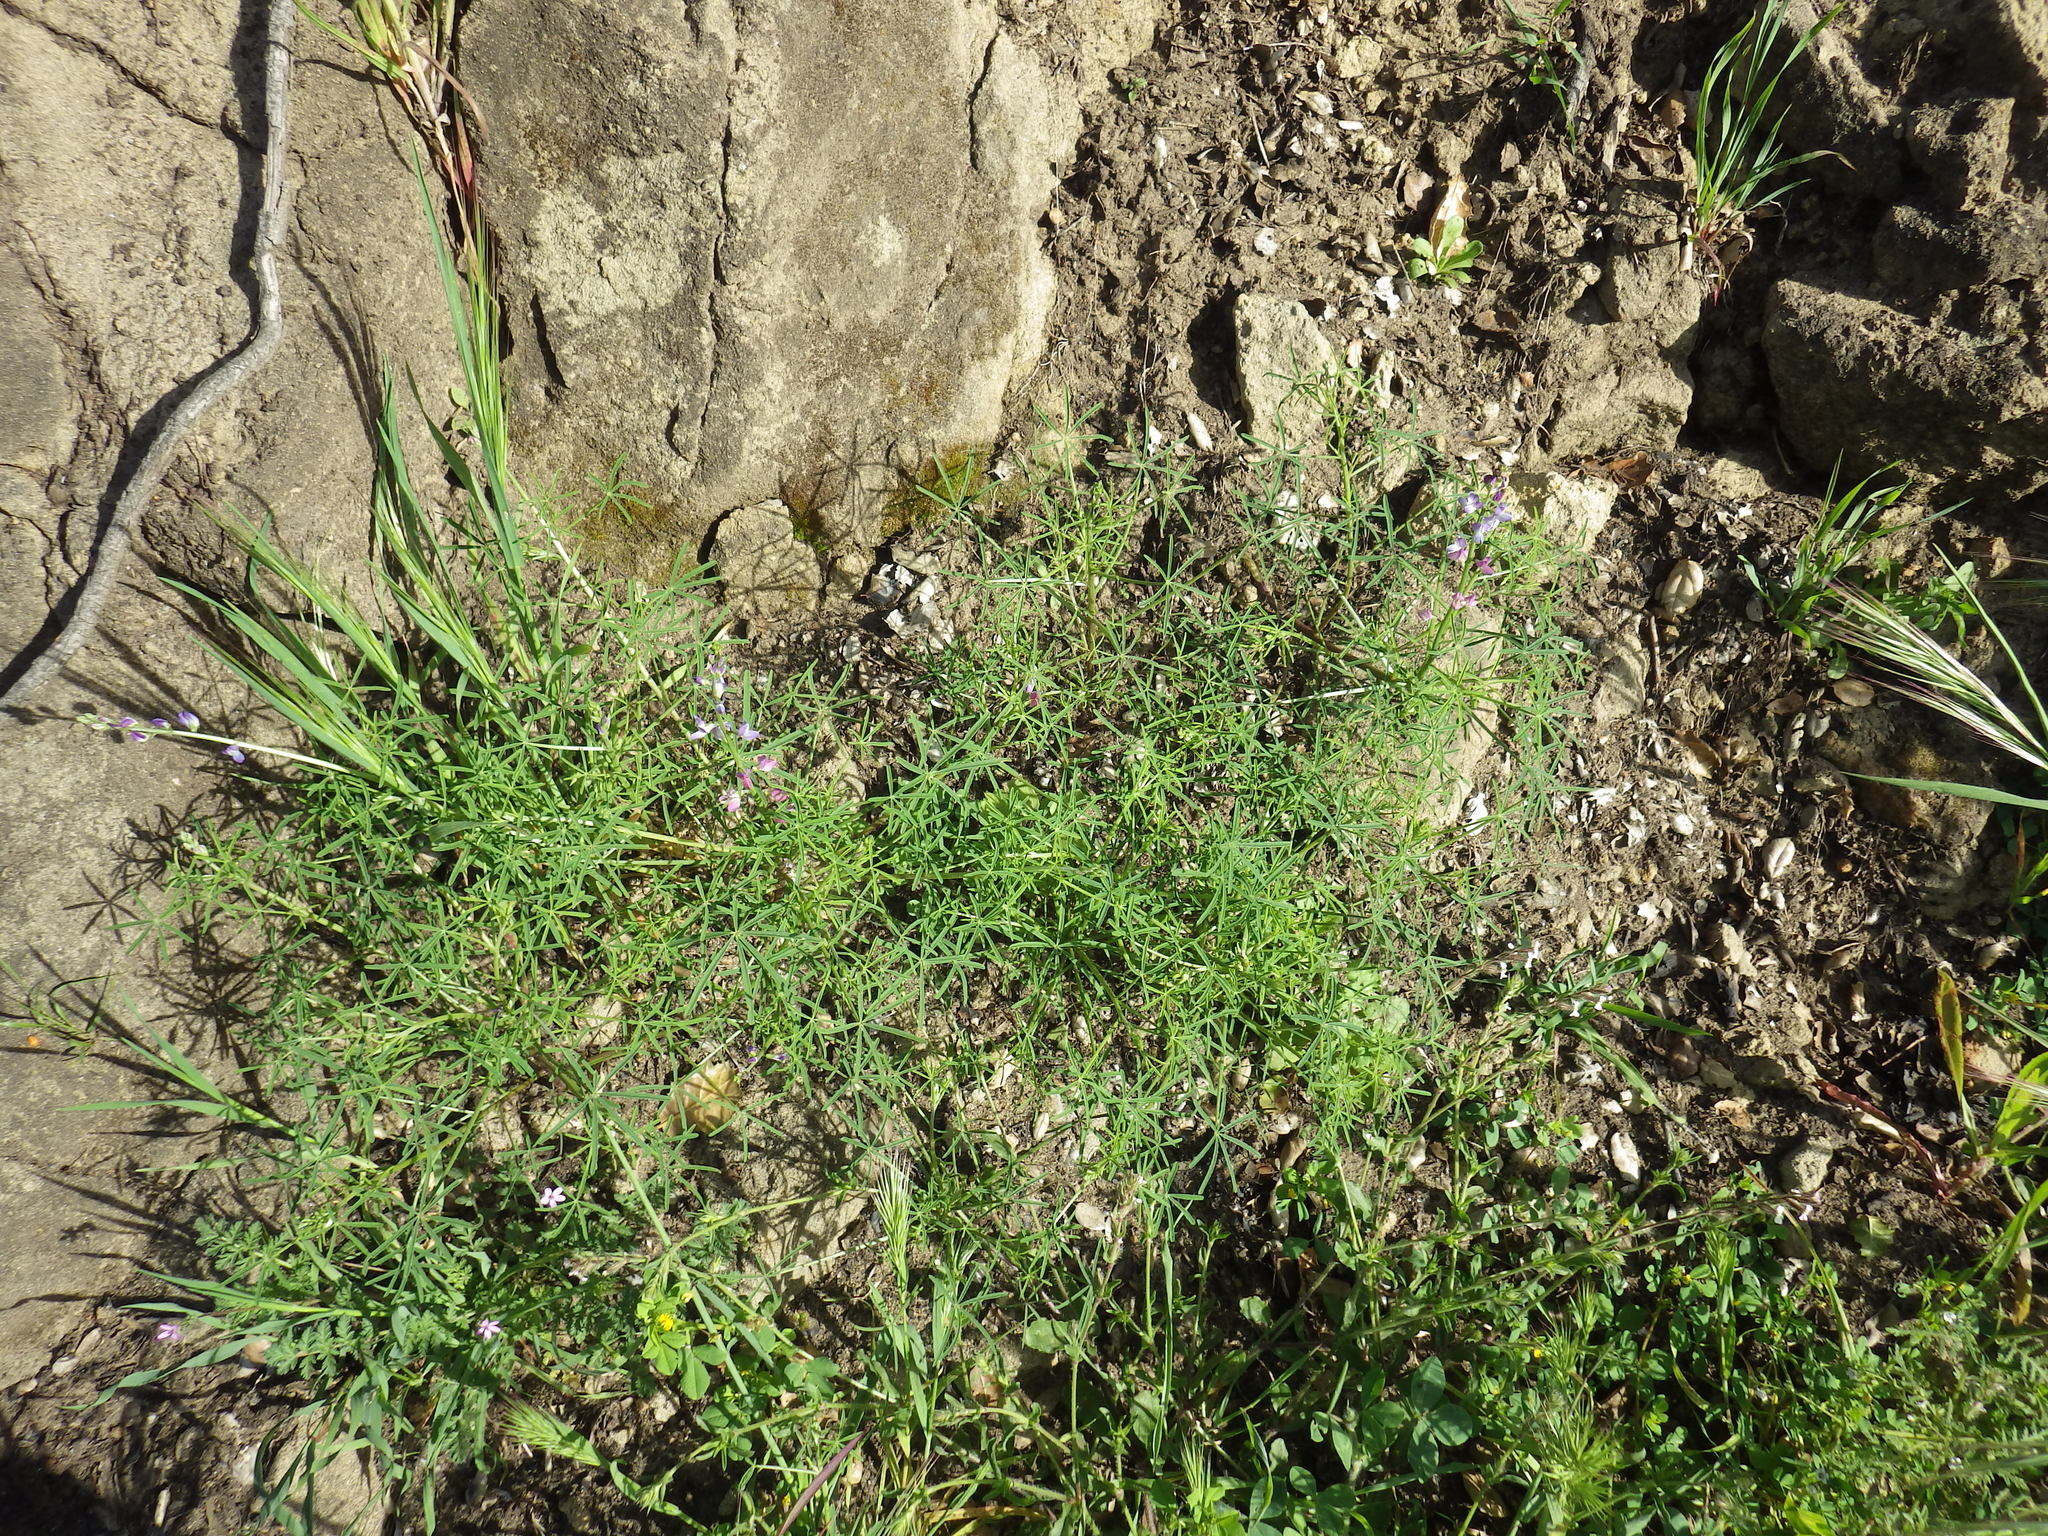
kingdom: Plantae
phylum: Tracheophyta
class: Magnoliopsida
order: Fabales
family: Fabaceae
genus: Lupinus
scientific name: Lupinus truncatus
